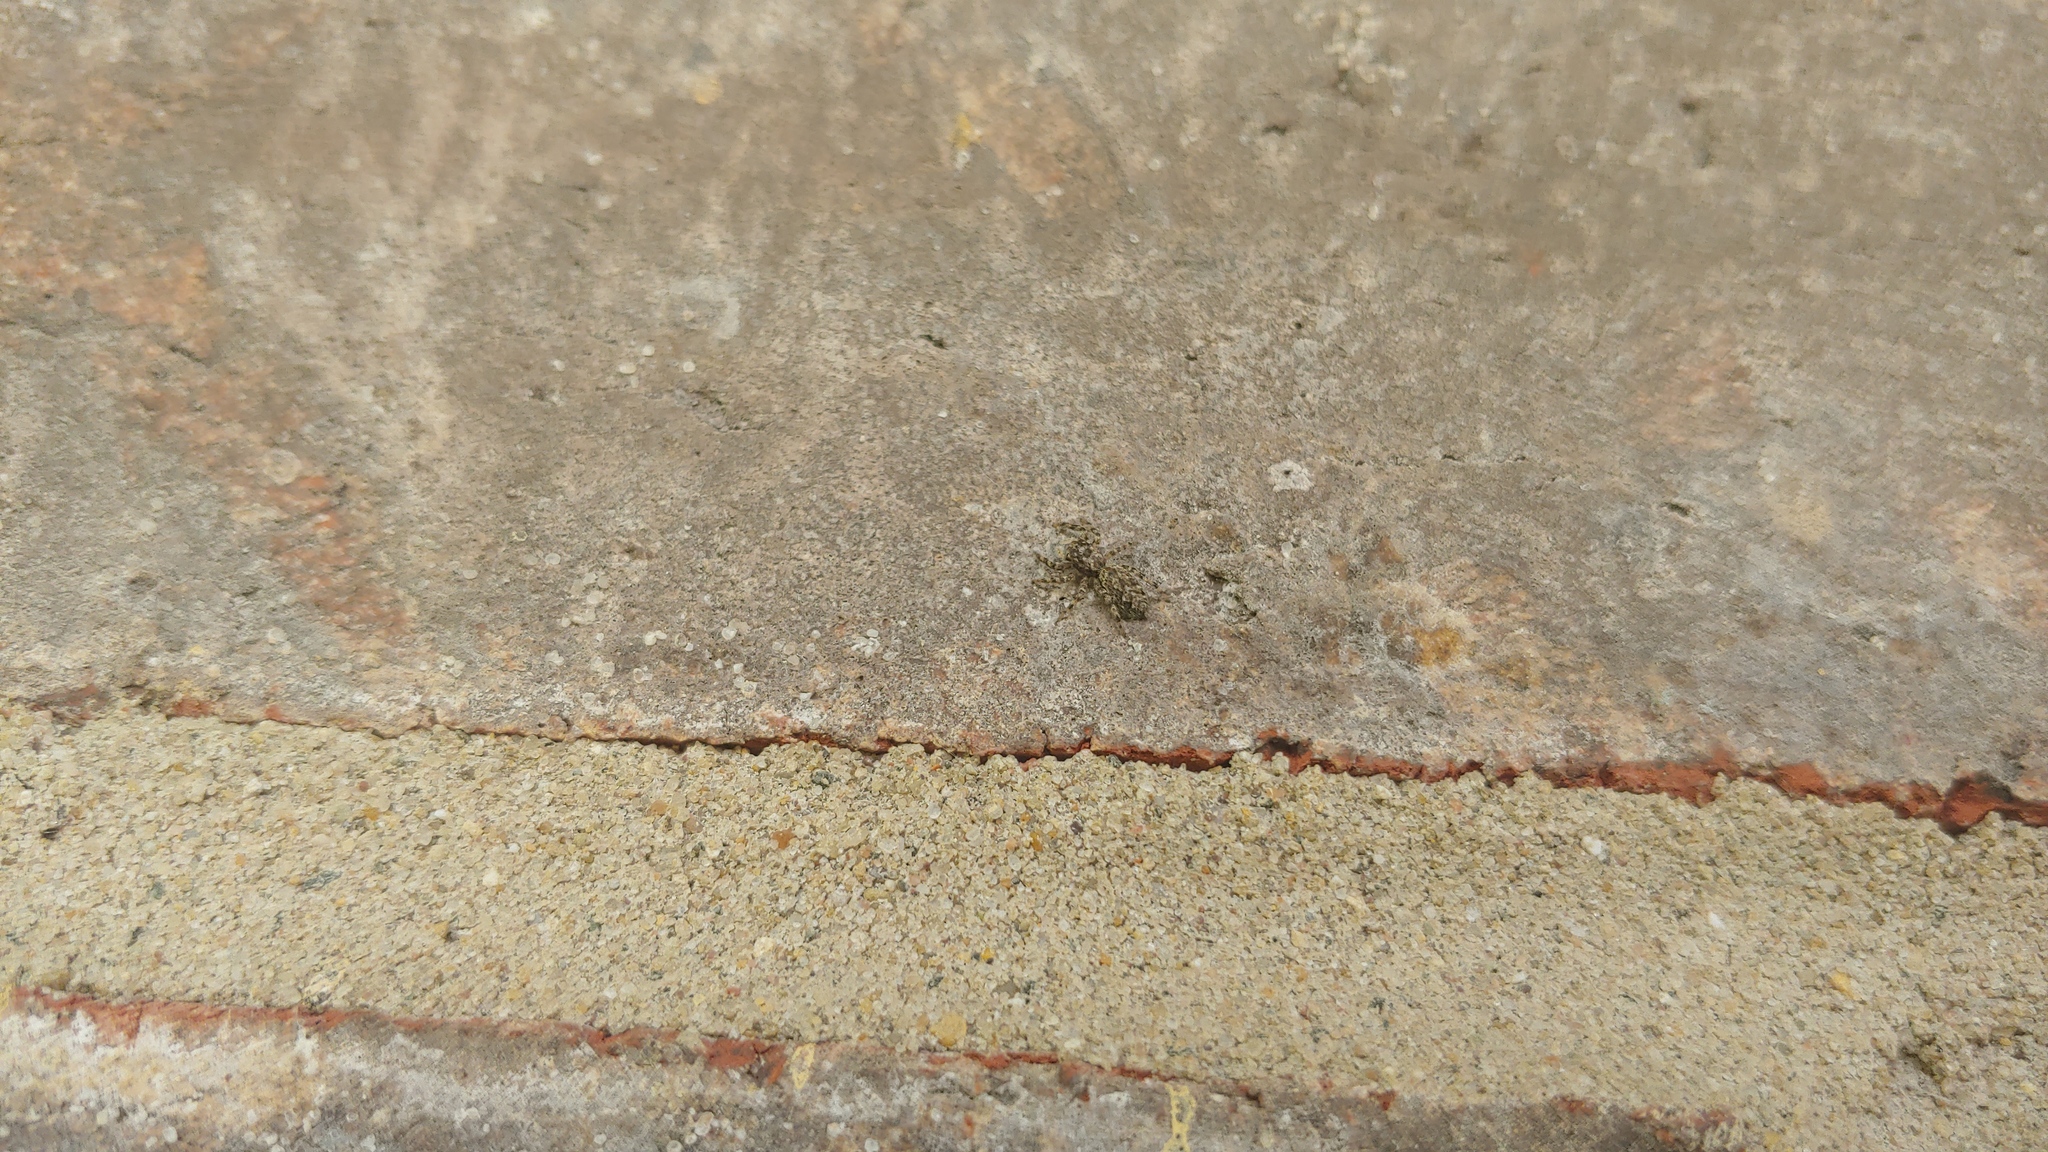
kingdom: Animalia
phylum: Arthropoda
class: Arachnida
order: Araneae
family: Salticidae
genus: Platycryptus
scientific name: Platycryptus undatus
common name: Tan jumping spider
